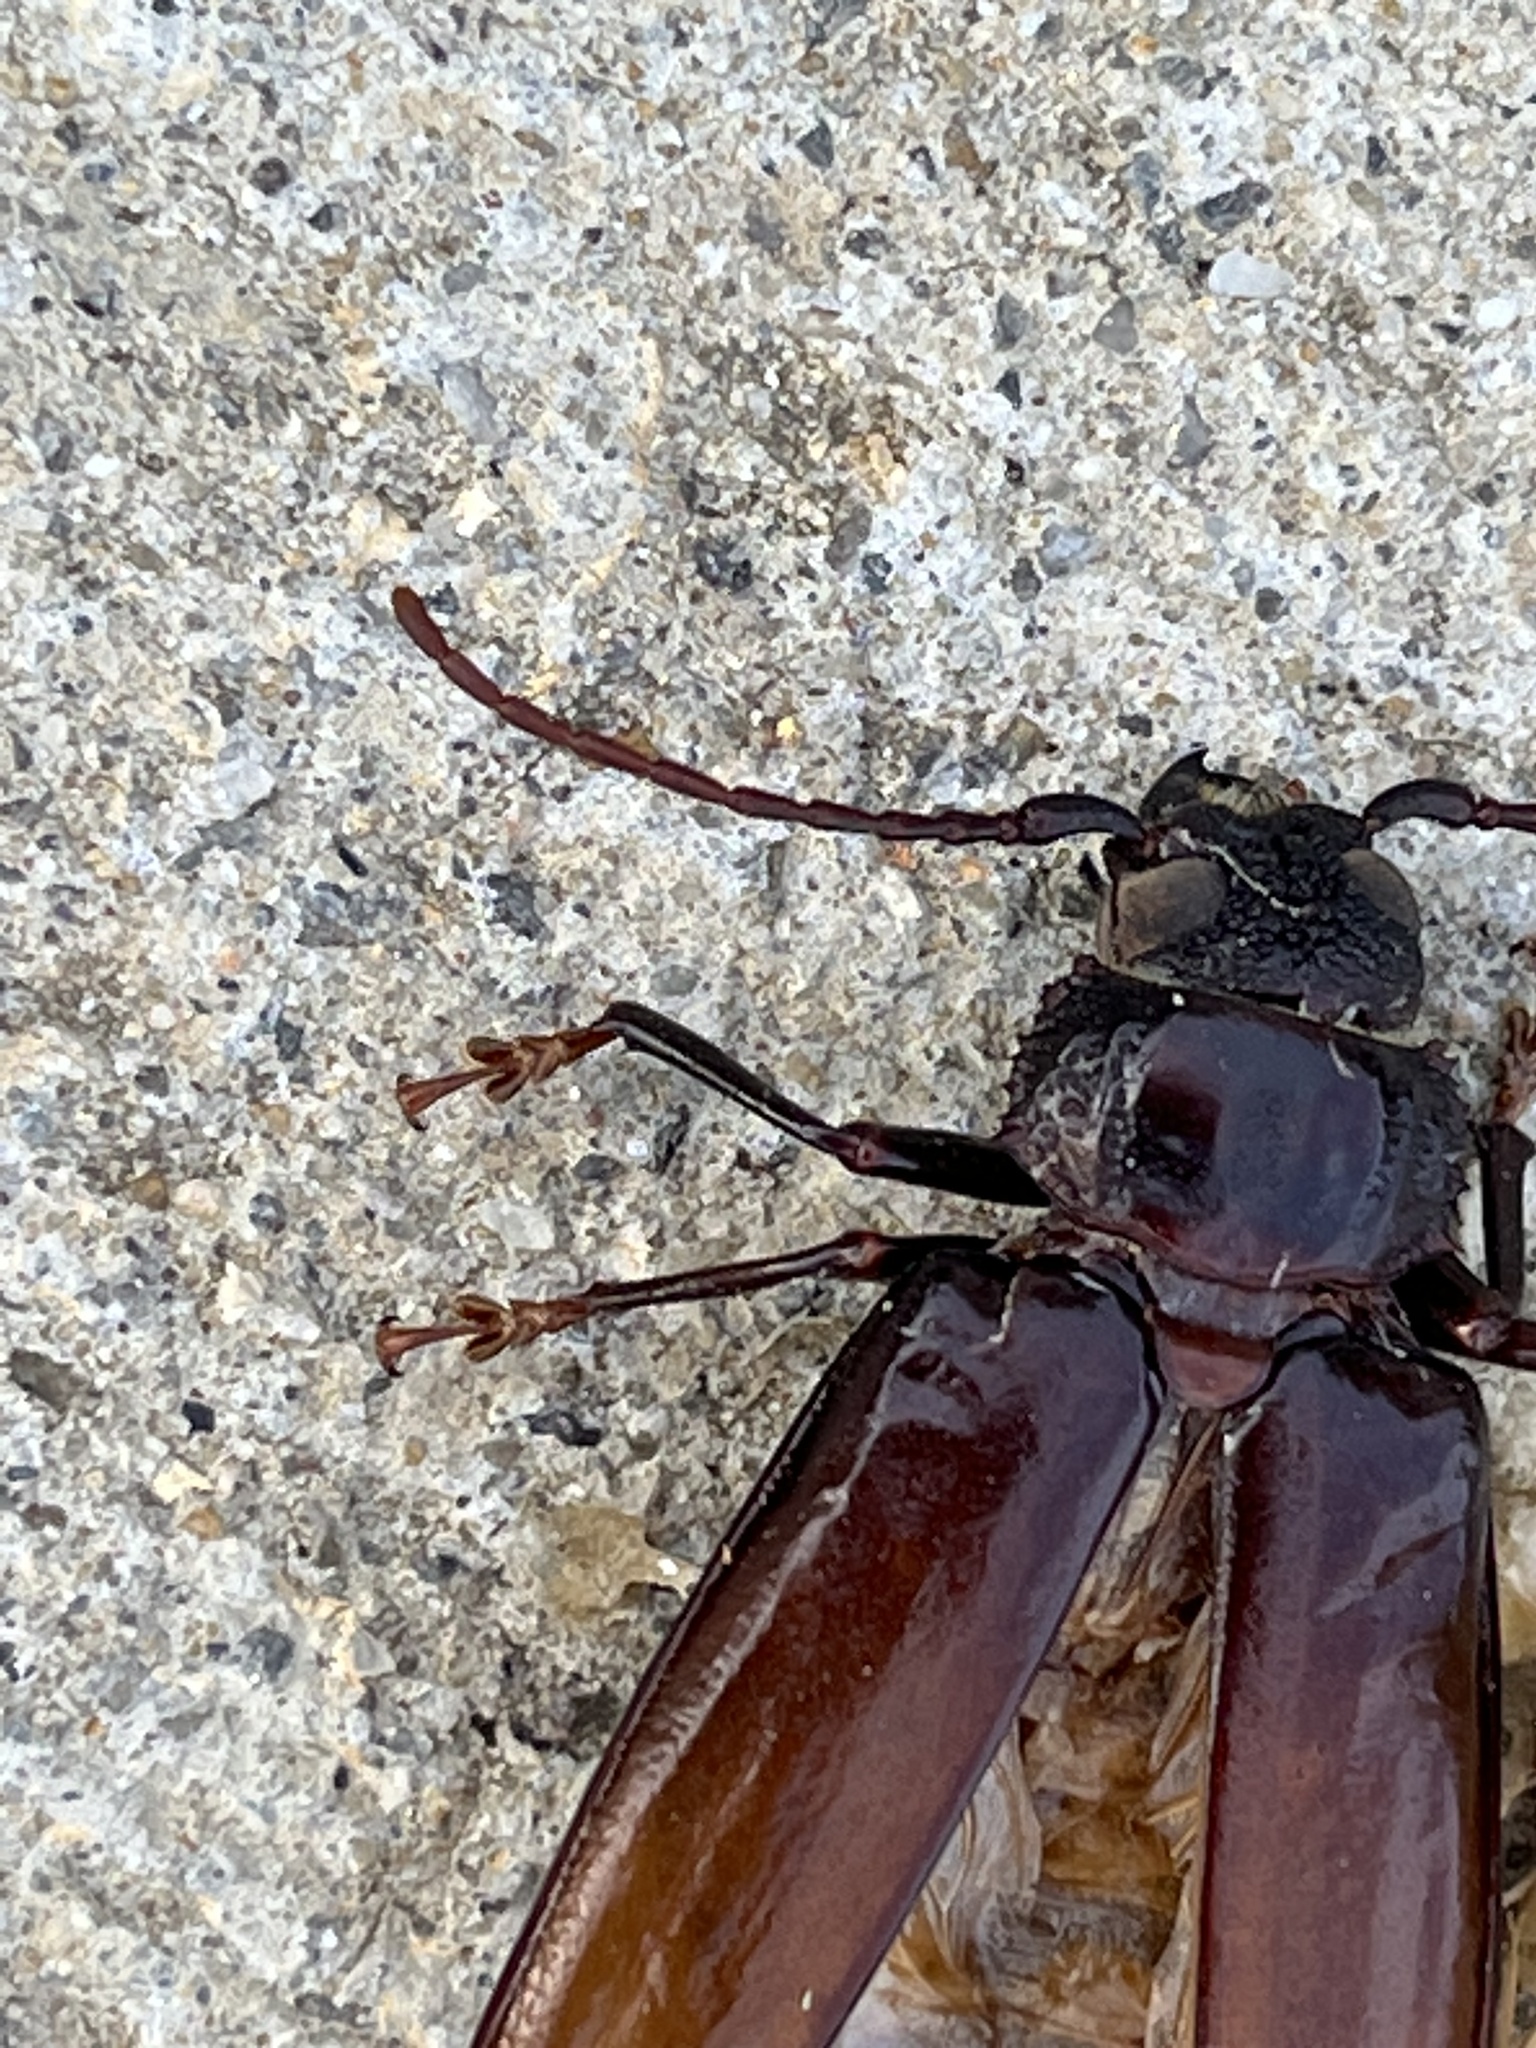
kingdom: Animalia
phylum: Arthropoda
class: Insecta
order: Coleoptera
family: Cerambycidae
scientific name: Cerambycidae
